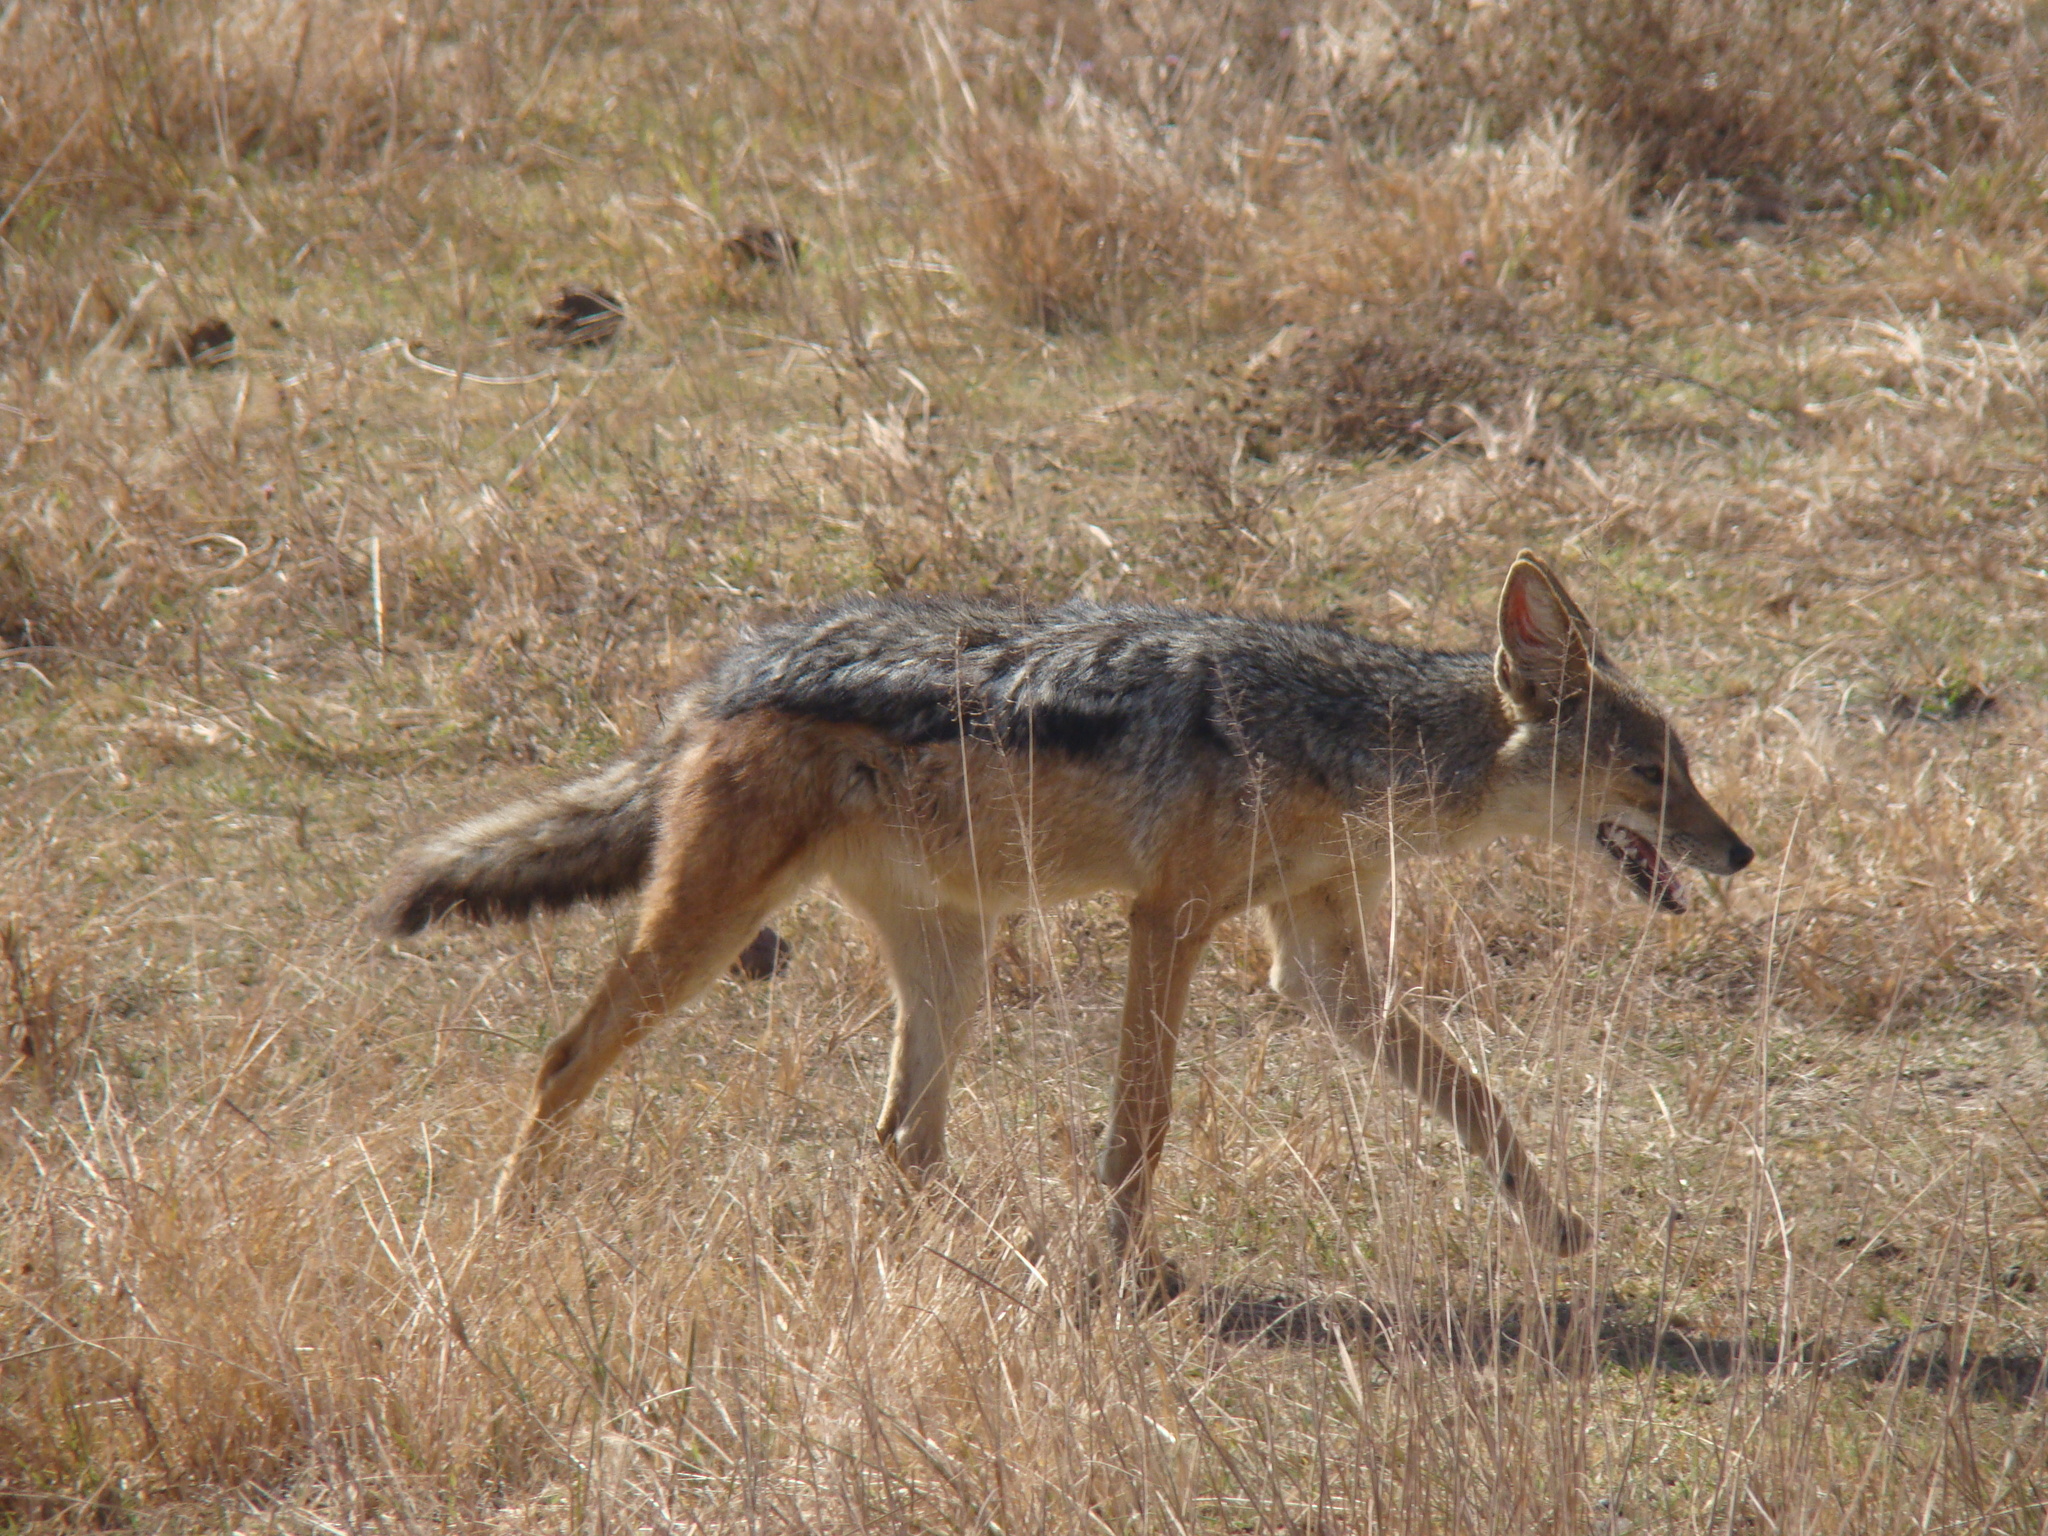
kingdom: Animalia
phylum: Chordata
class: Mammalia
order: Carnivora
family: Canidae
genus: Lupulella
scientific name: Lupulella
